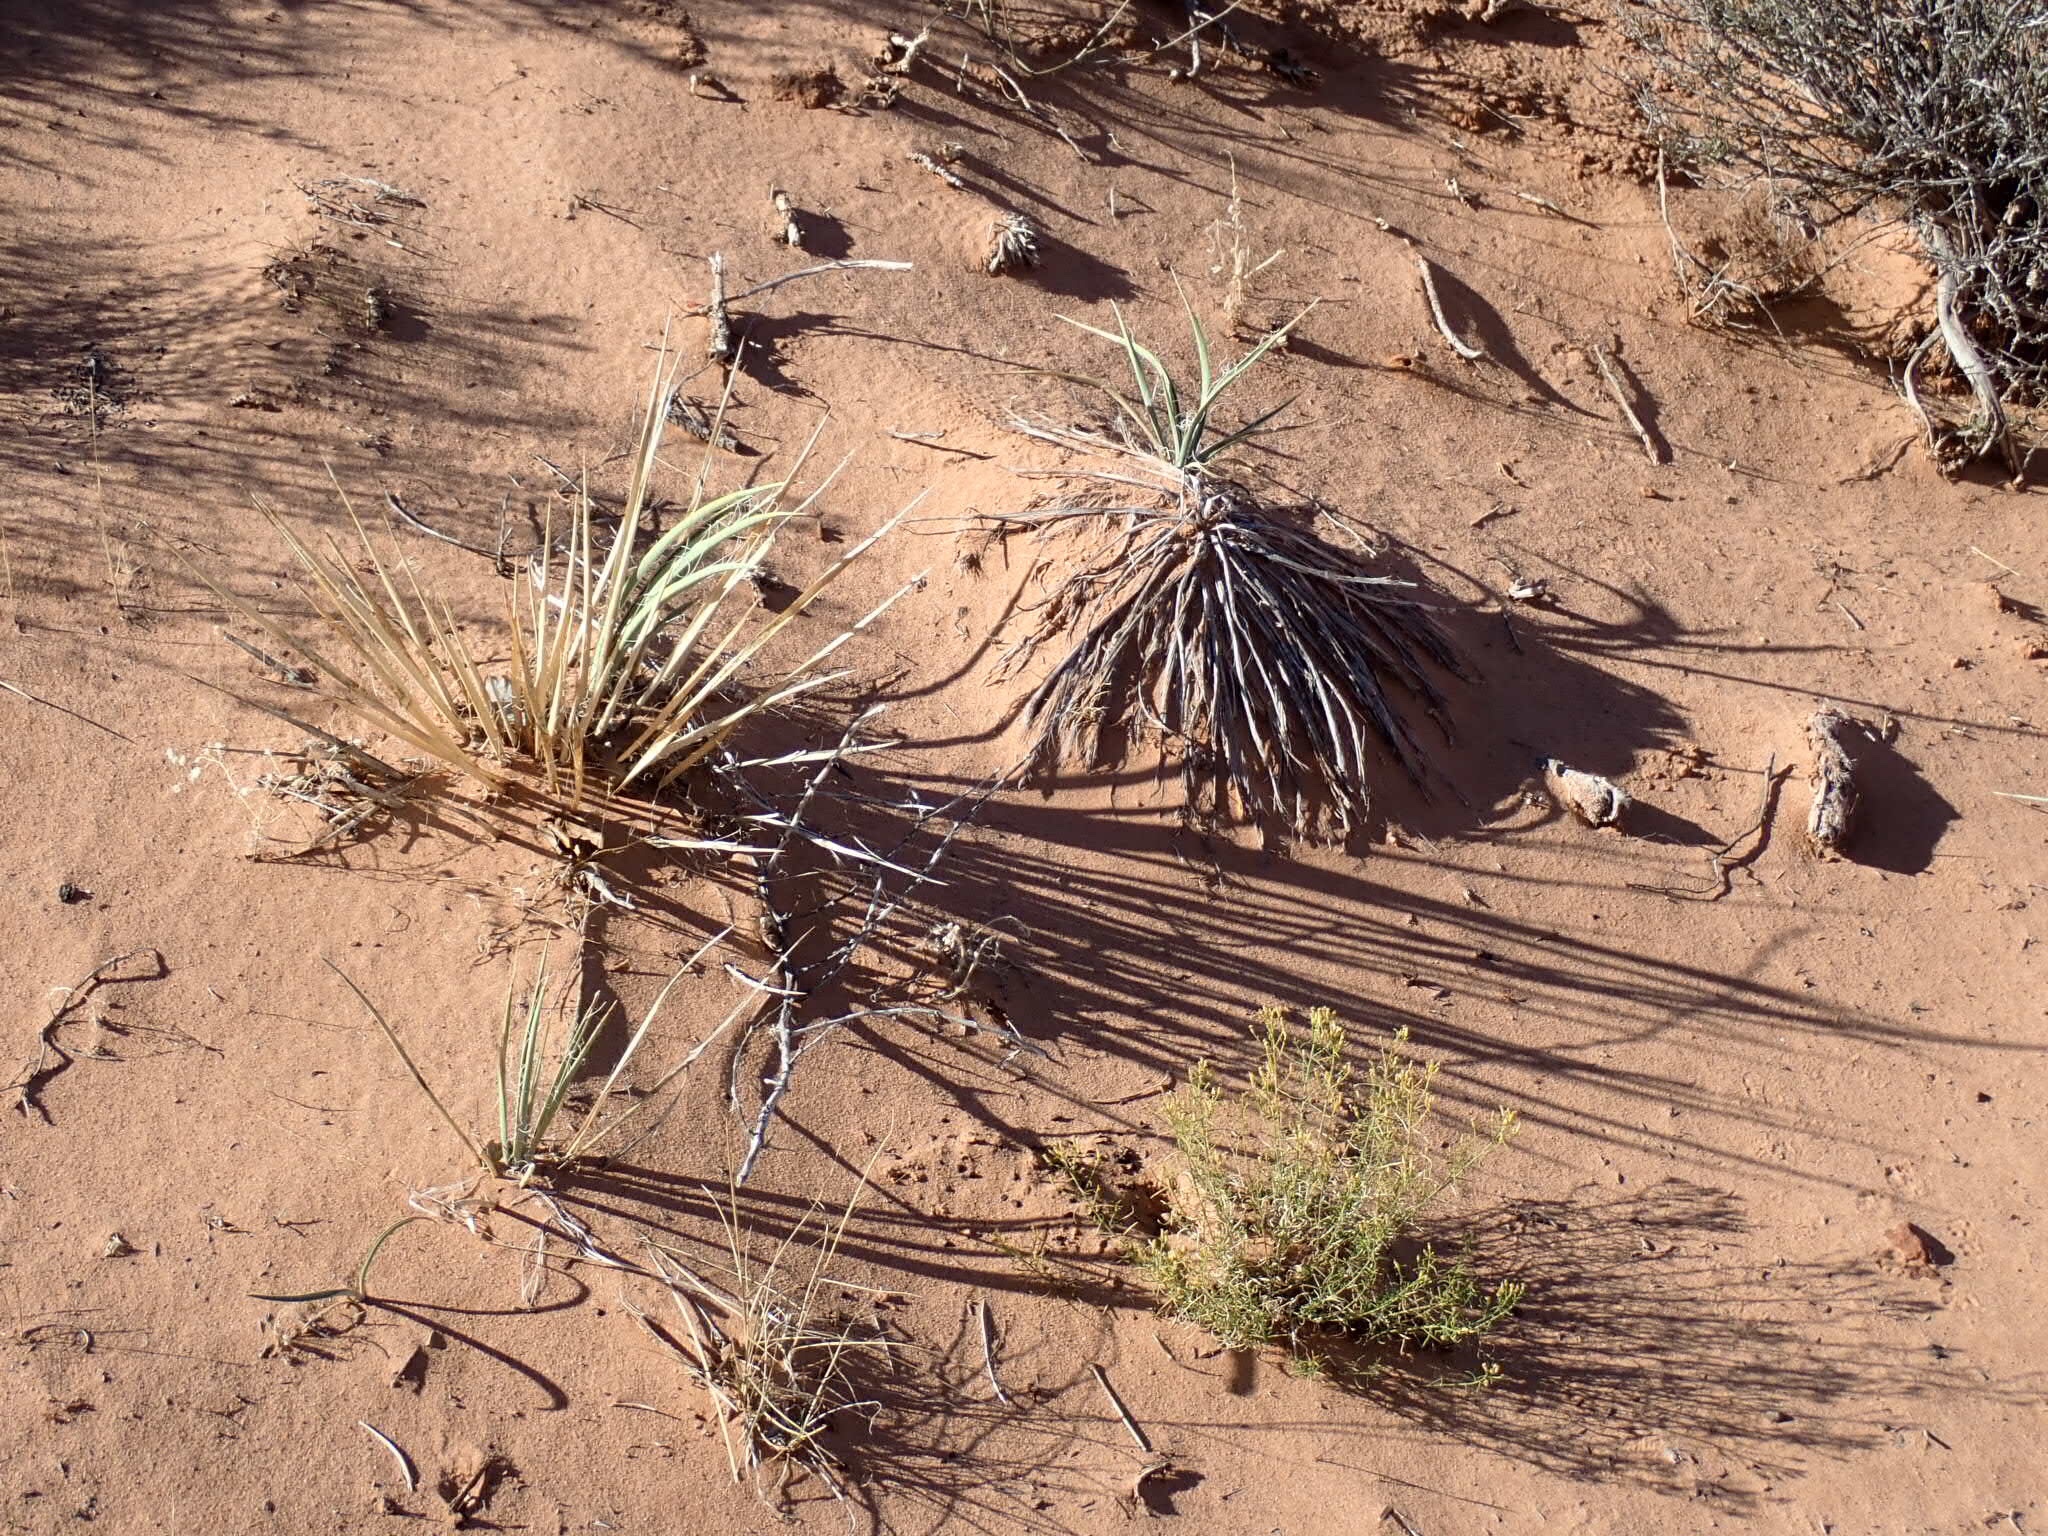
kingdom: Plantae
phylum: Tracheophyta
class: Liliopsida
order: Asparagales
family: Asparagaceae
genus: Yucca
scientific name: Yucca harrimaniae
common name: Harriman's yucca
